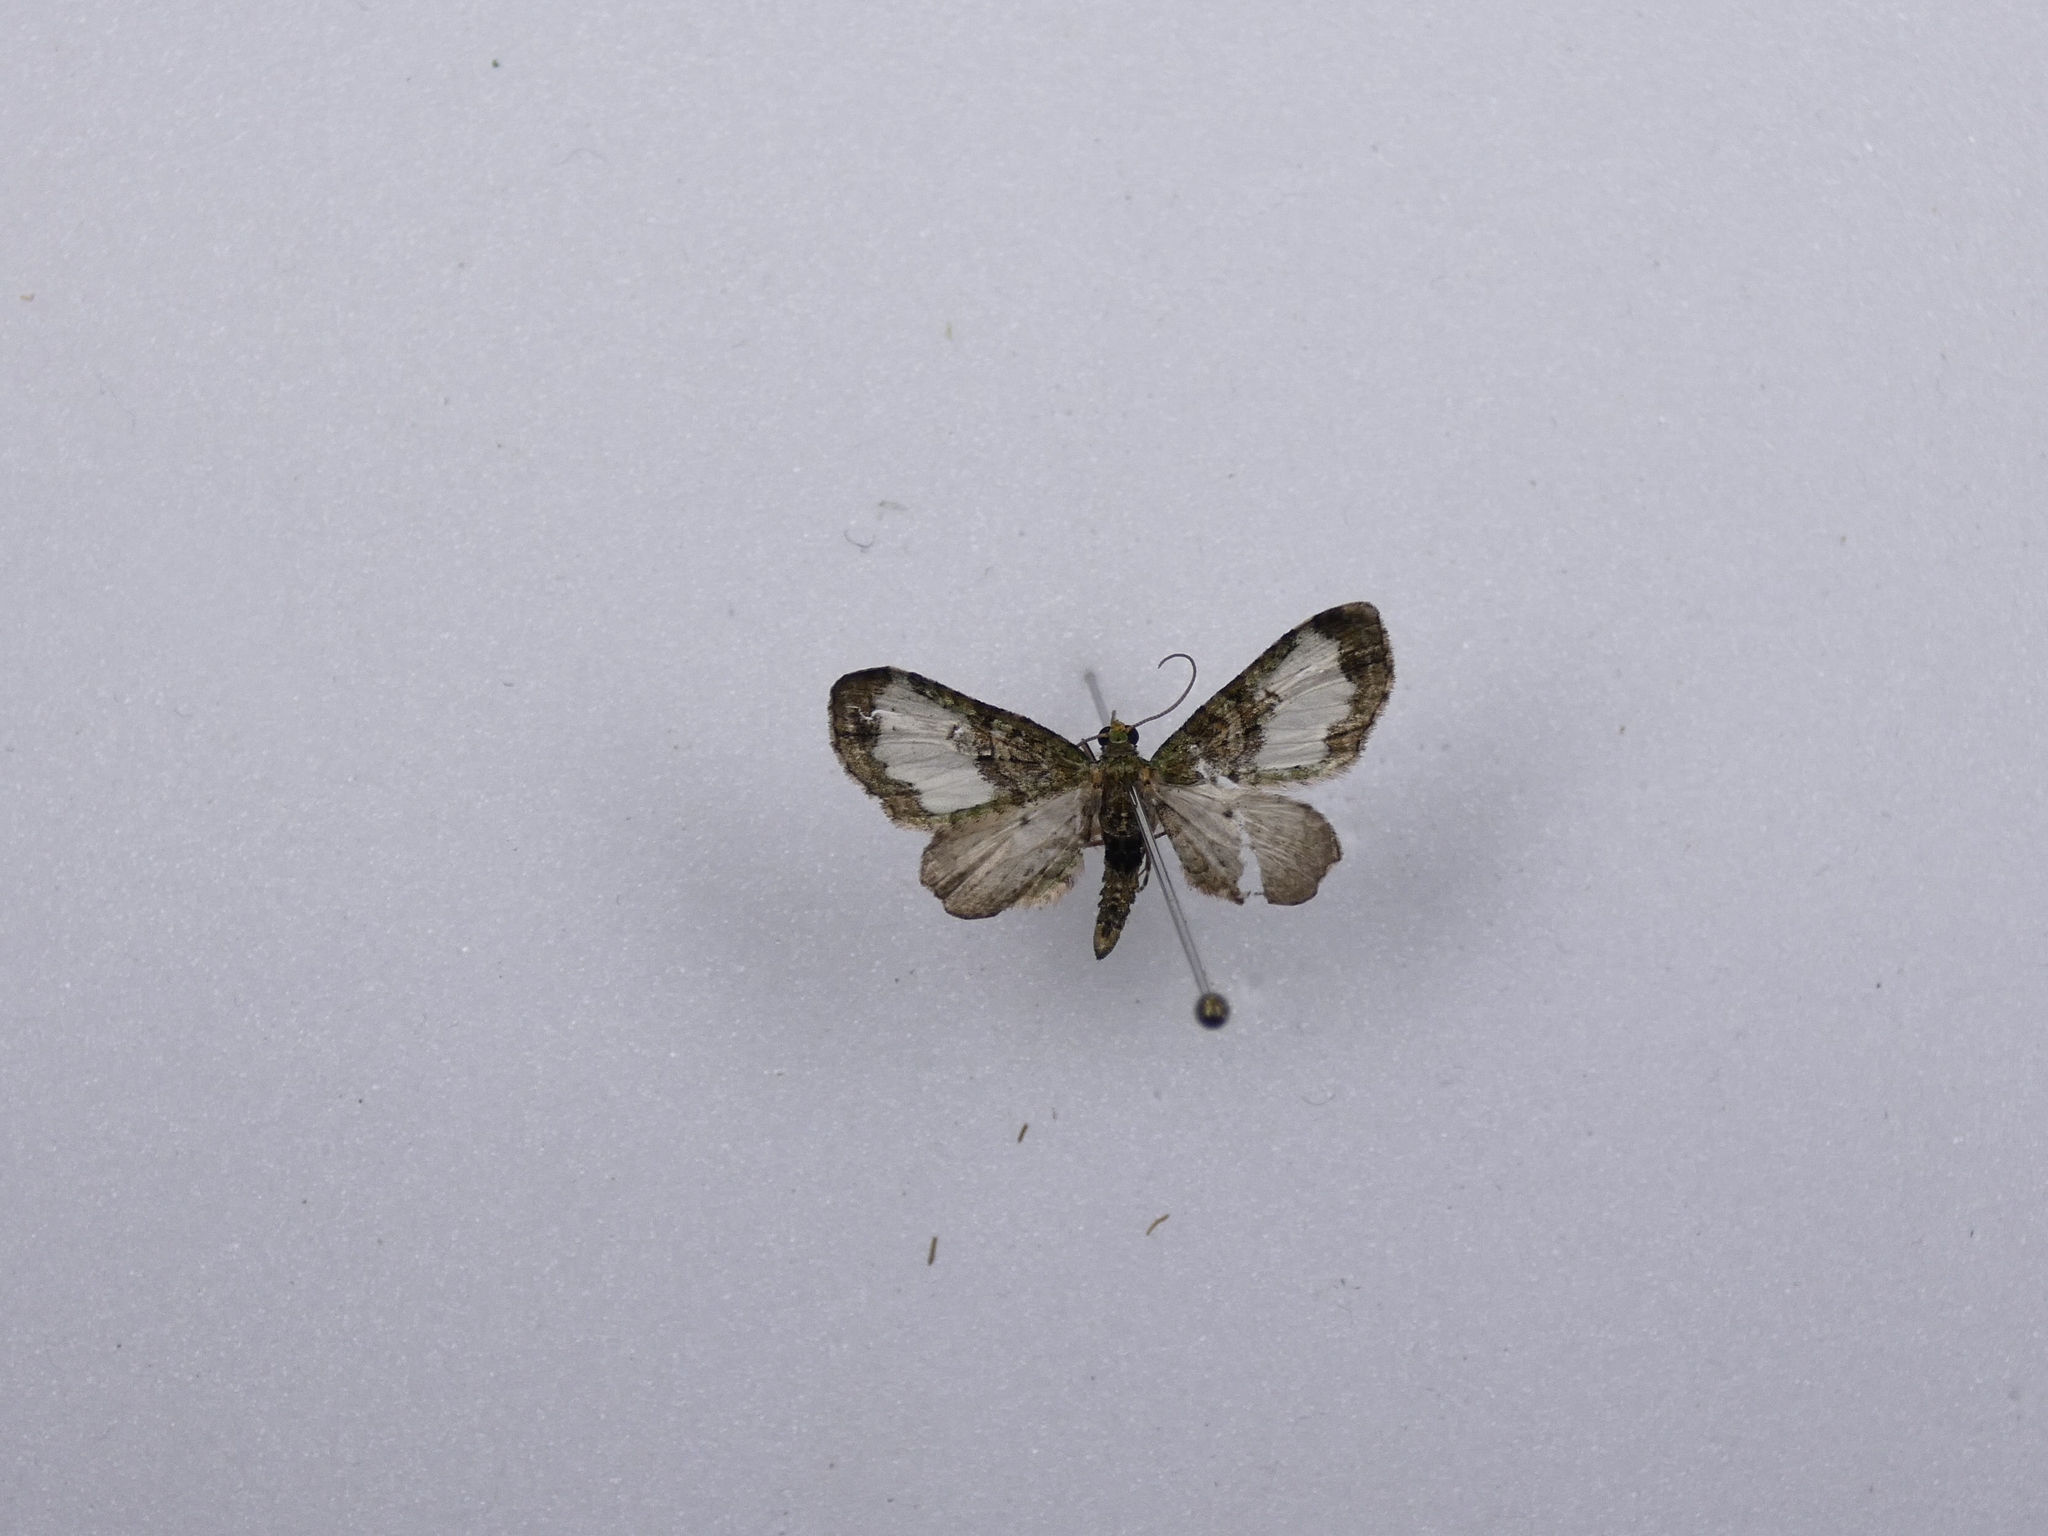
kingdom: Animalia
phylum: Arthropoda
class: Insecta
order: Lepidoptera
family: Geometridae
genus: Idaea
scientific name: Idaea mutanda
